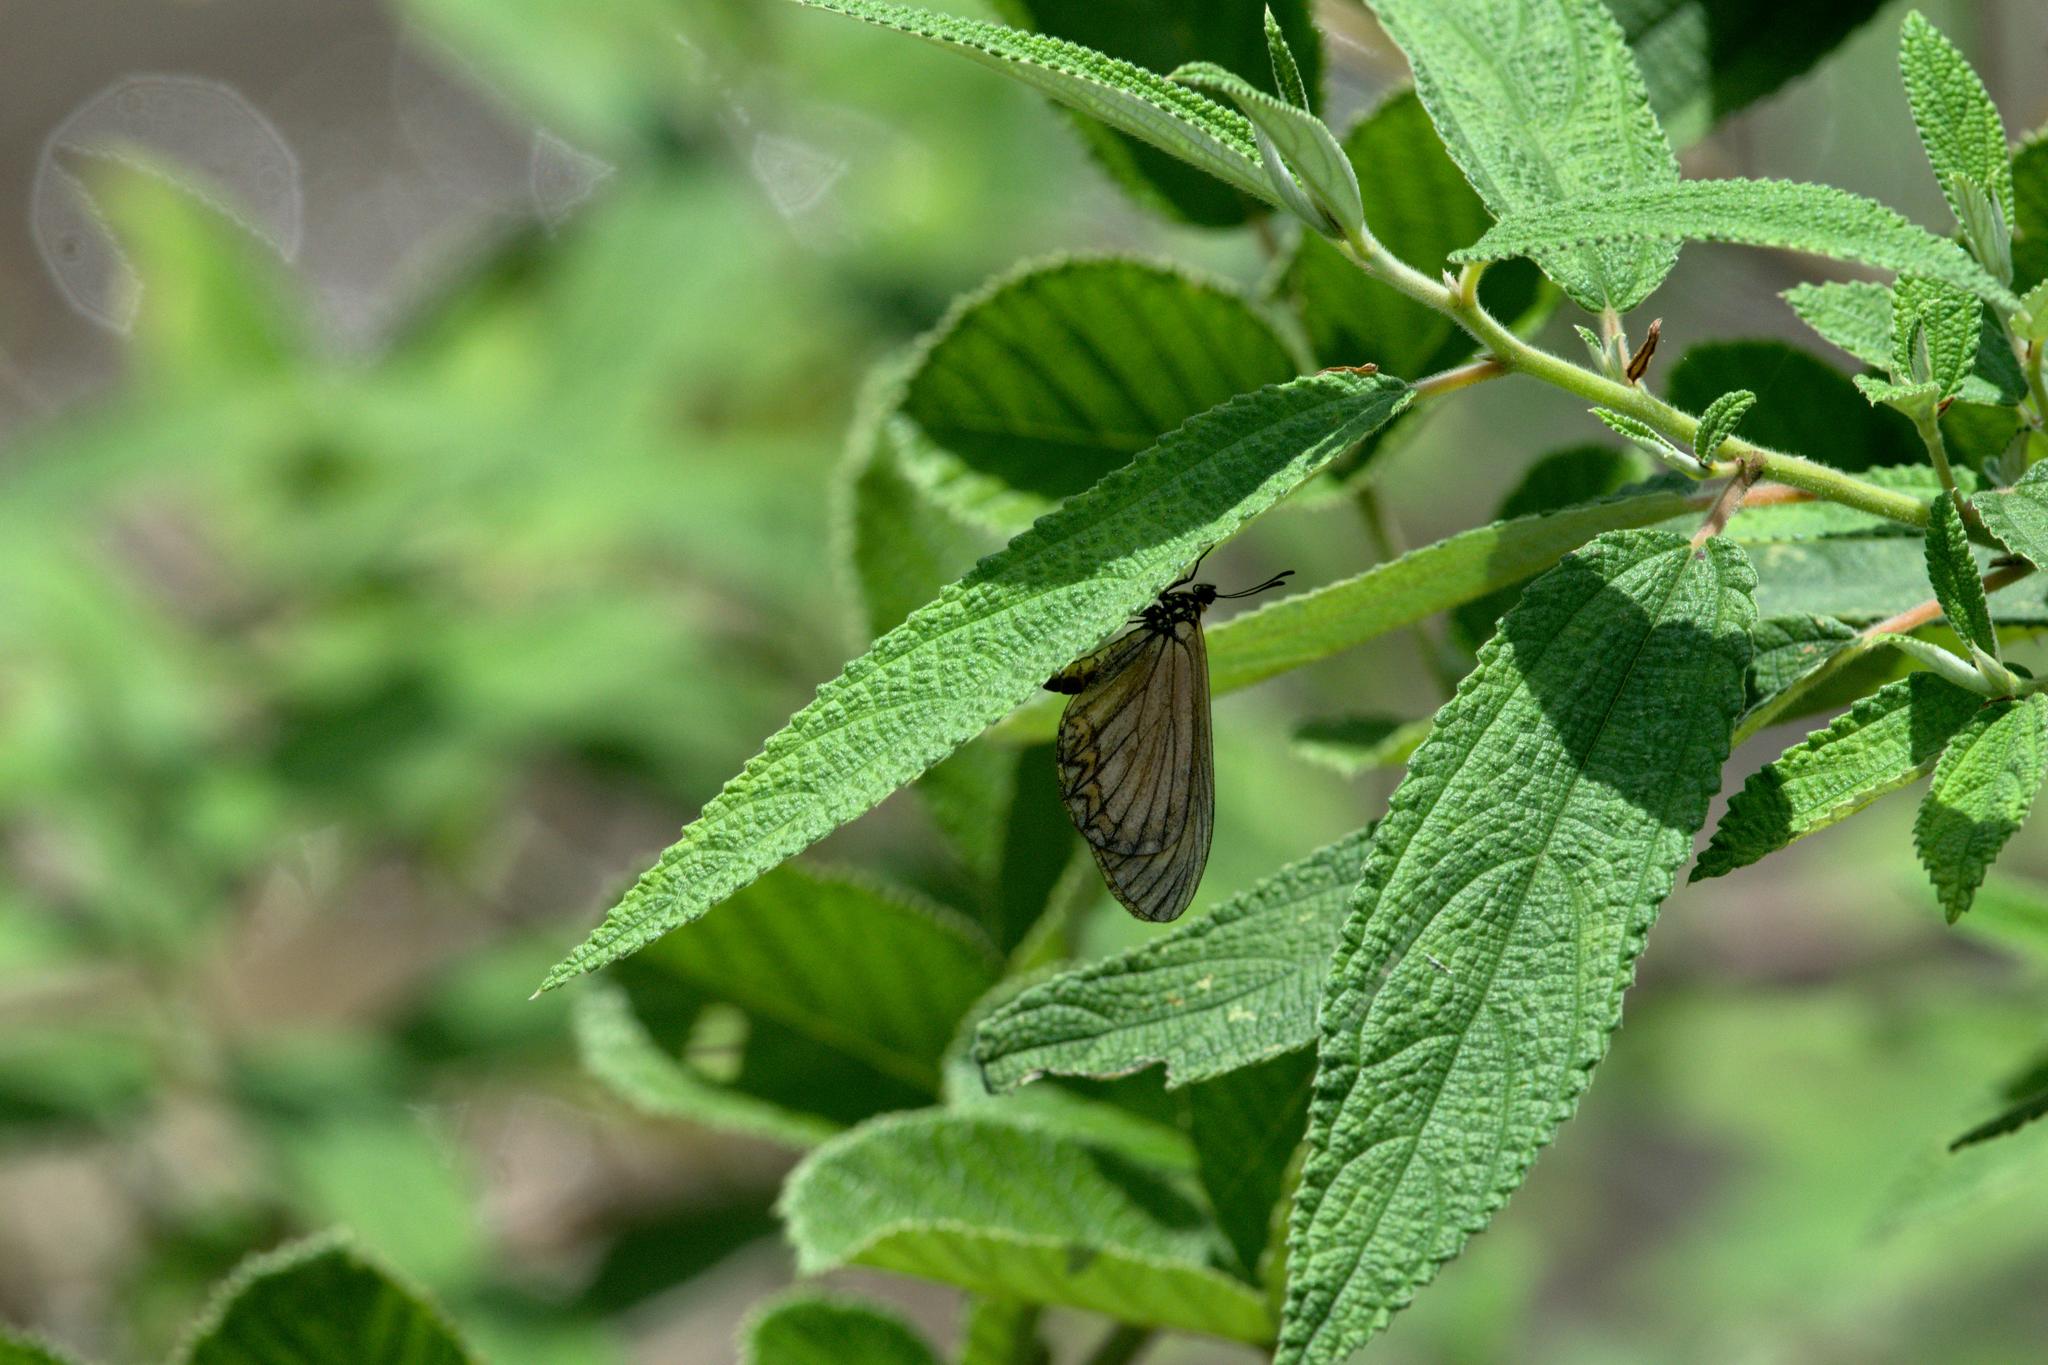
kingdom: Animalia
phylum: Arthropoda
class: Insecta
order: Lepidoptera
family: Nymphalidae
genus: Acraea
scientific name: Acraea Telchinia issoria
